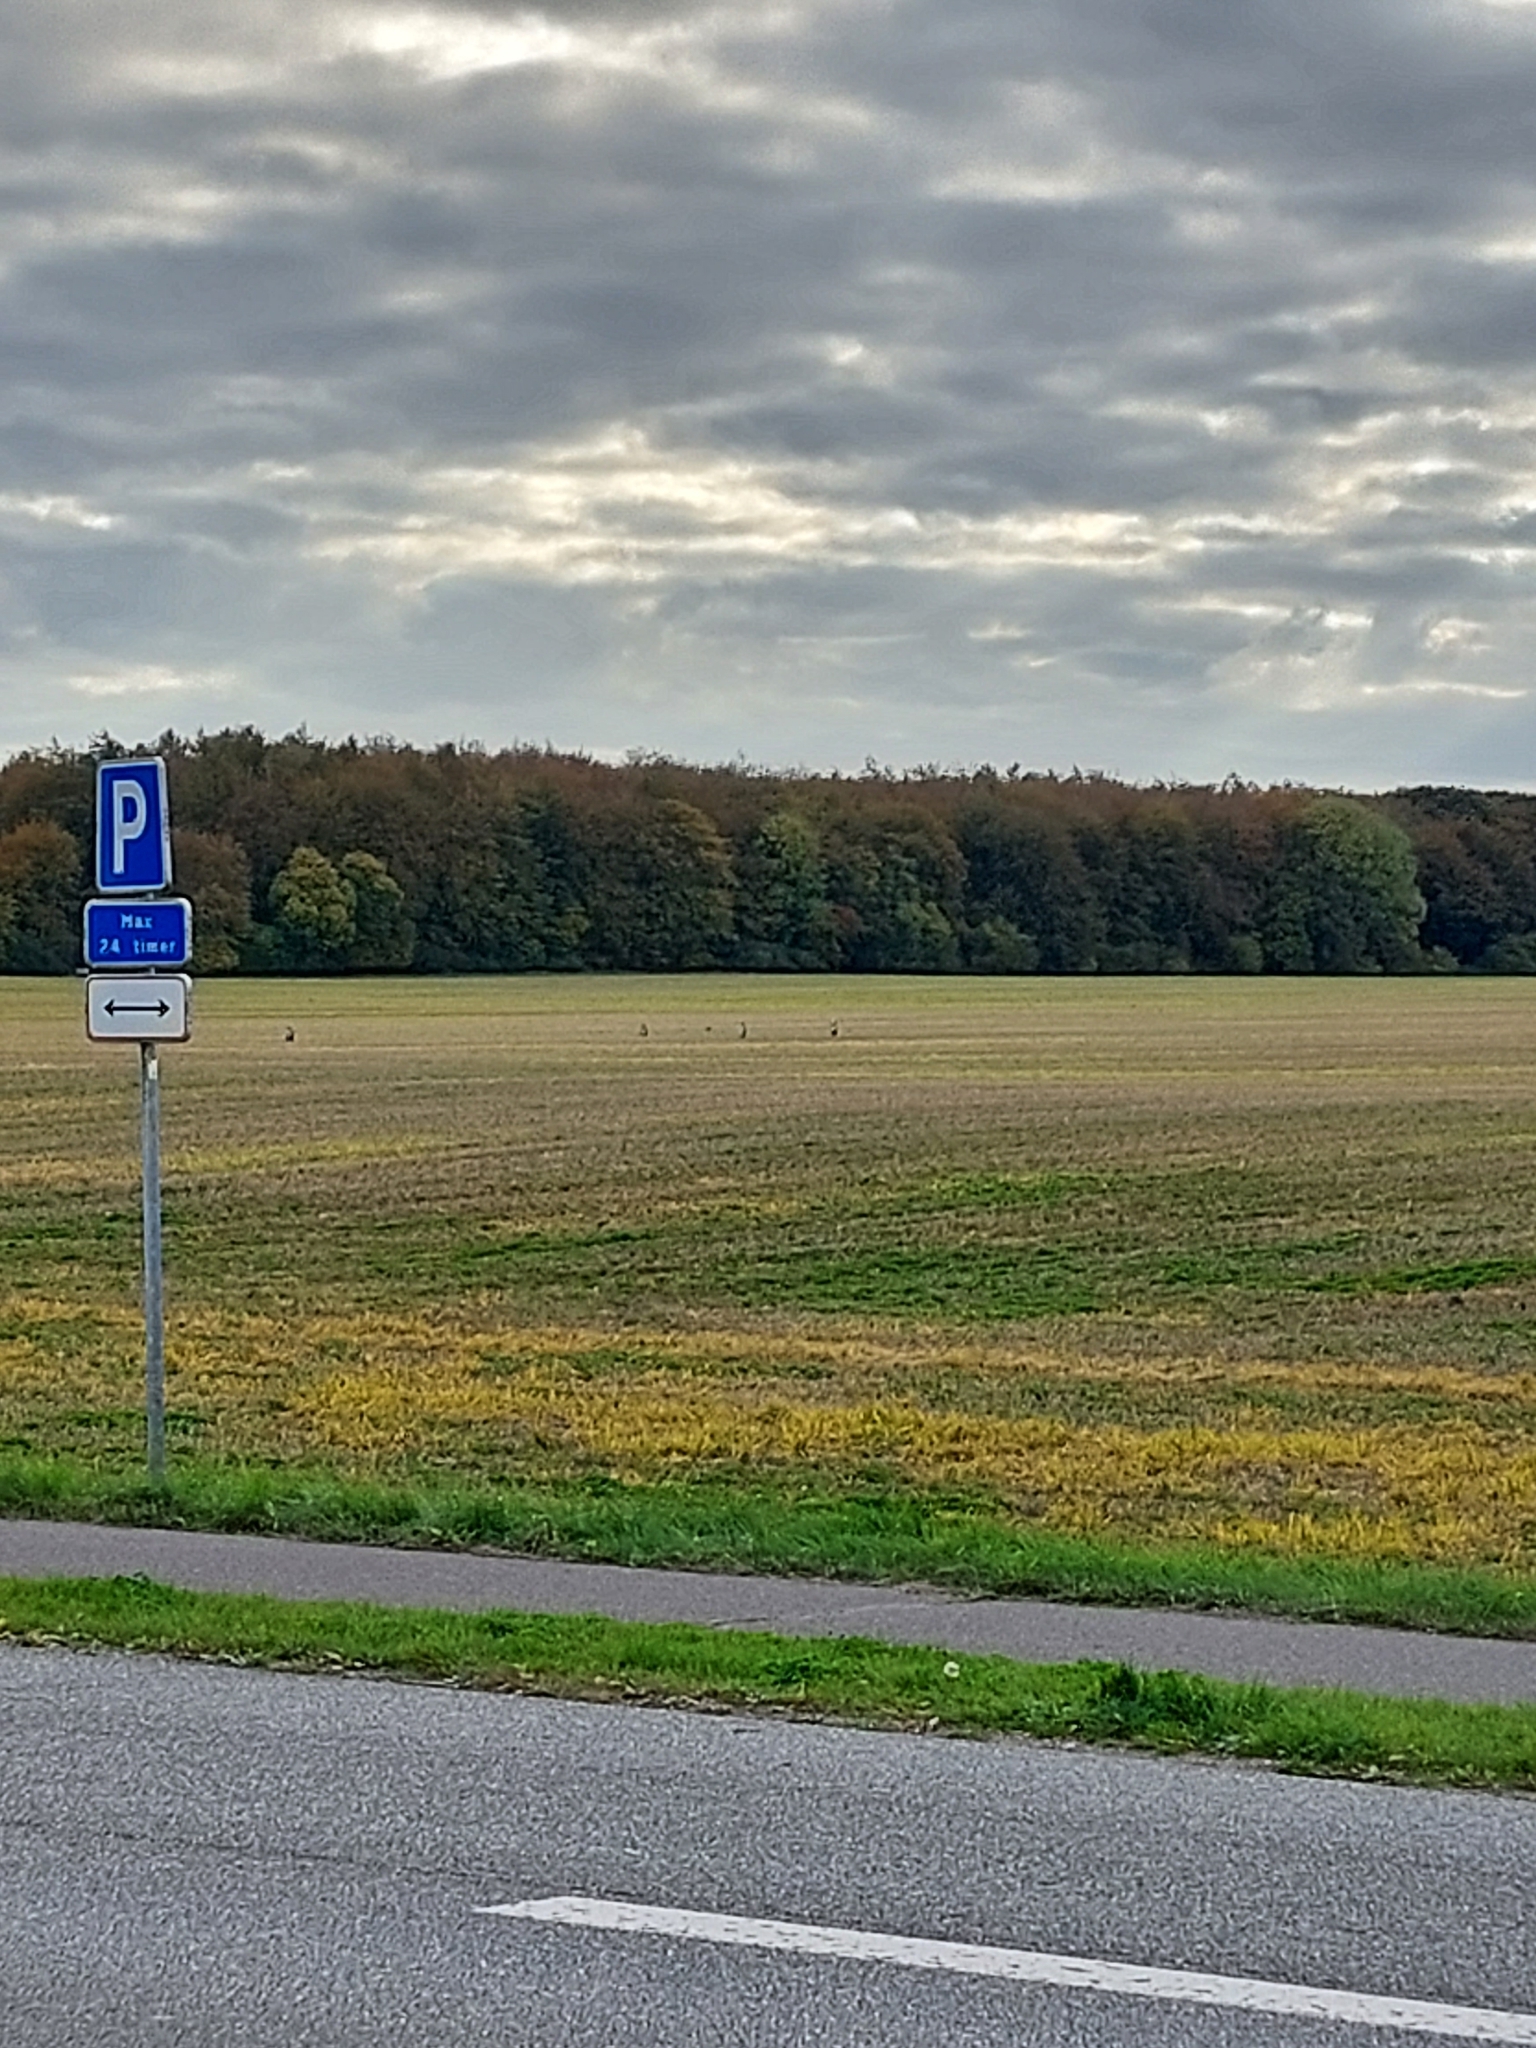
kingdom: Animalia
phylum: Chordata
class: Aves
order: Pelecaniformes
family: Ardeidae
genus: Ardea
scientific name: Ardea cinerea
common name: Grey heron
